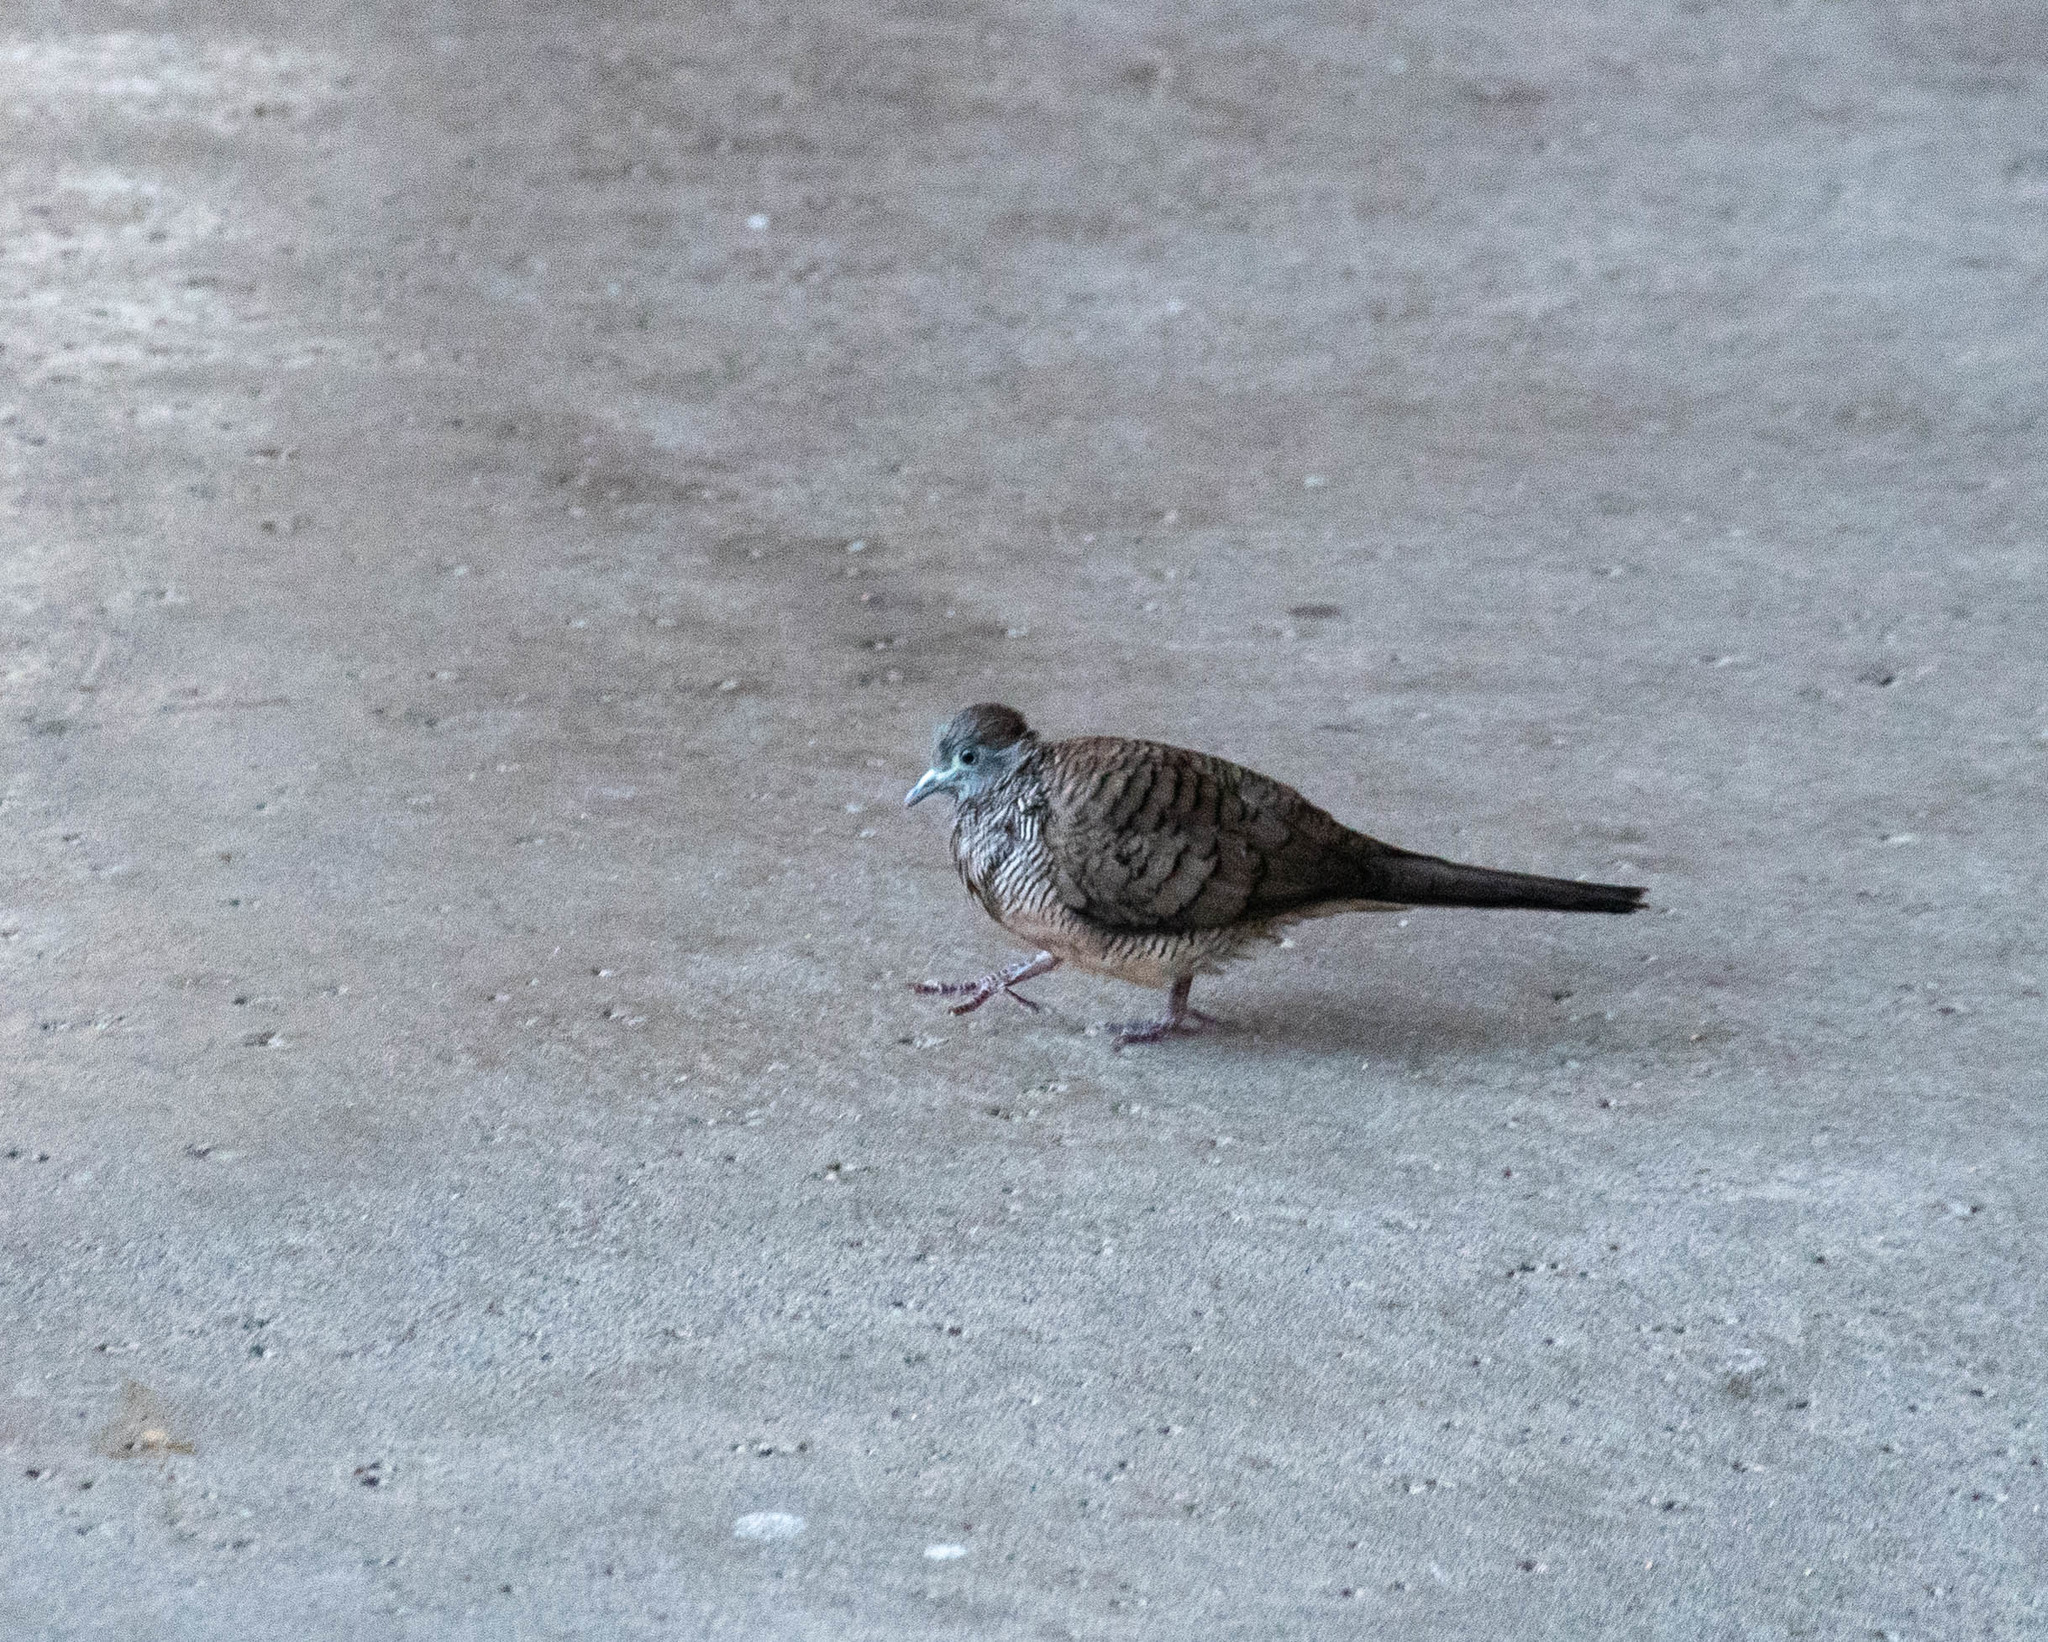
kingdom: Animalia
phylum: Chordata
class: Aves
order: Columbiformes
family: Columbidae
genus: Geopelia
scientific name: Geopelia striata
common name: Zebra dove
